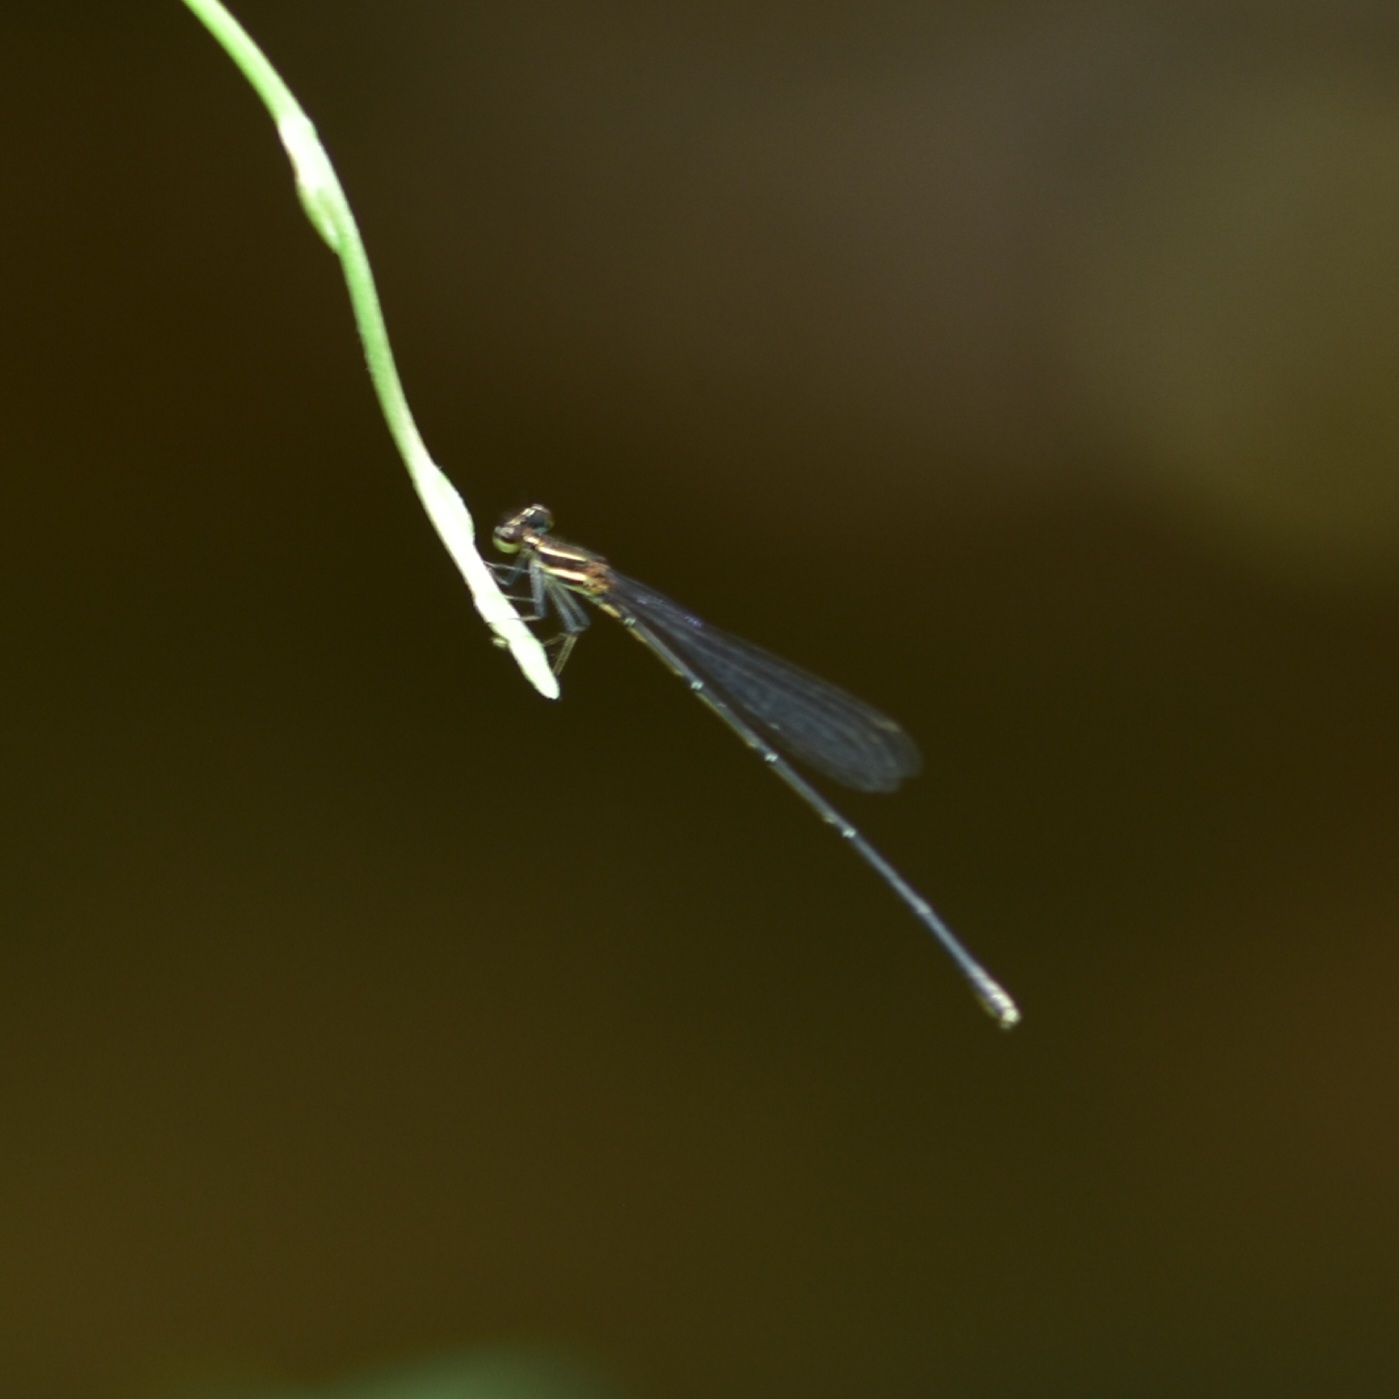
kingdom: Animalia
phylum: Arthropoda
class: Insecta
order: Odonata
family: Platycnemididae
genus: Prodasineura
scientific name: Prodasineura verticalis
